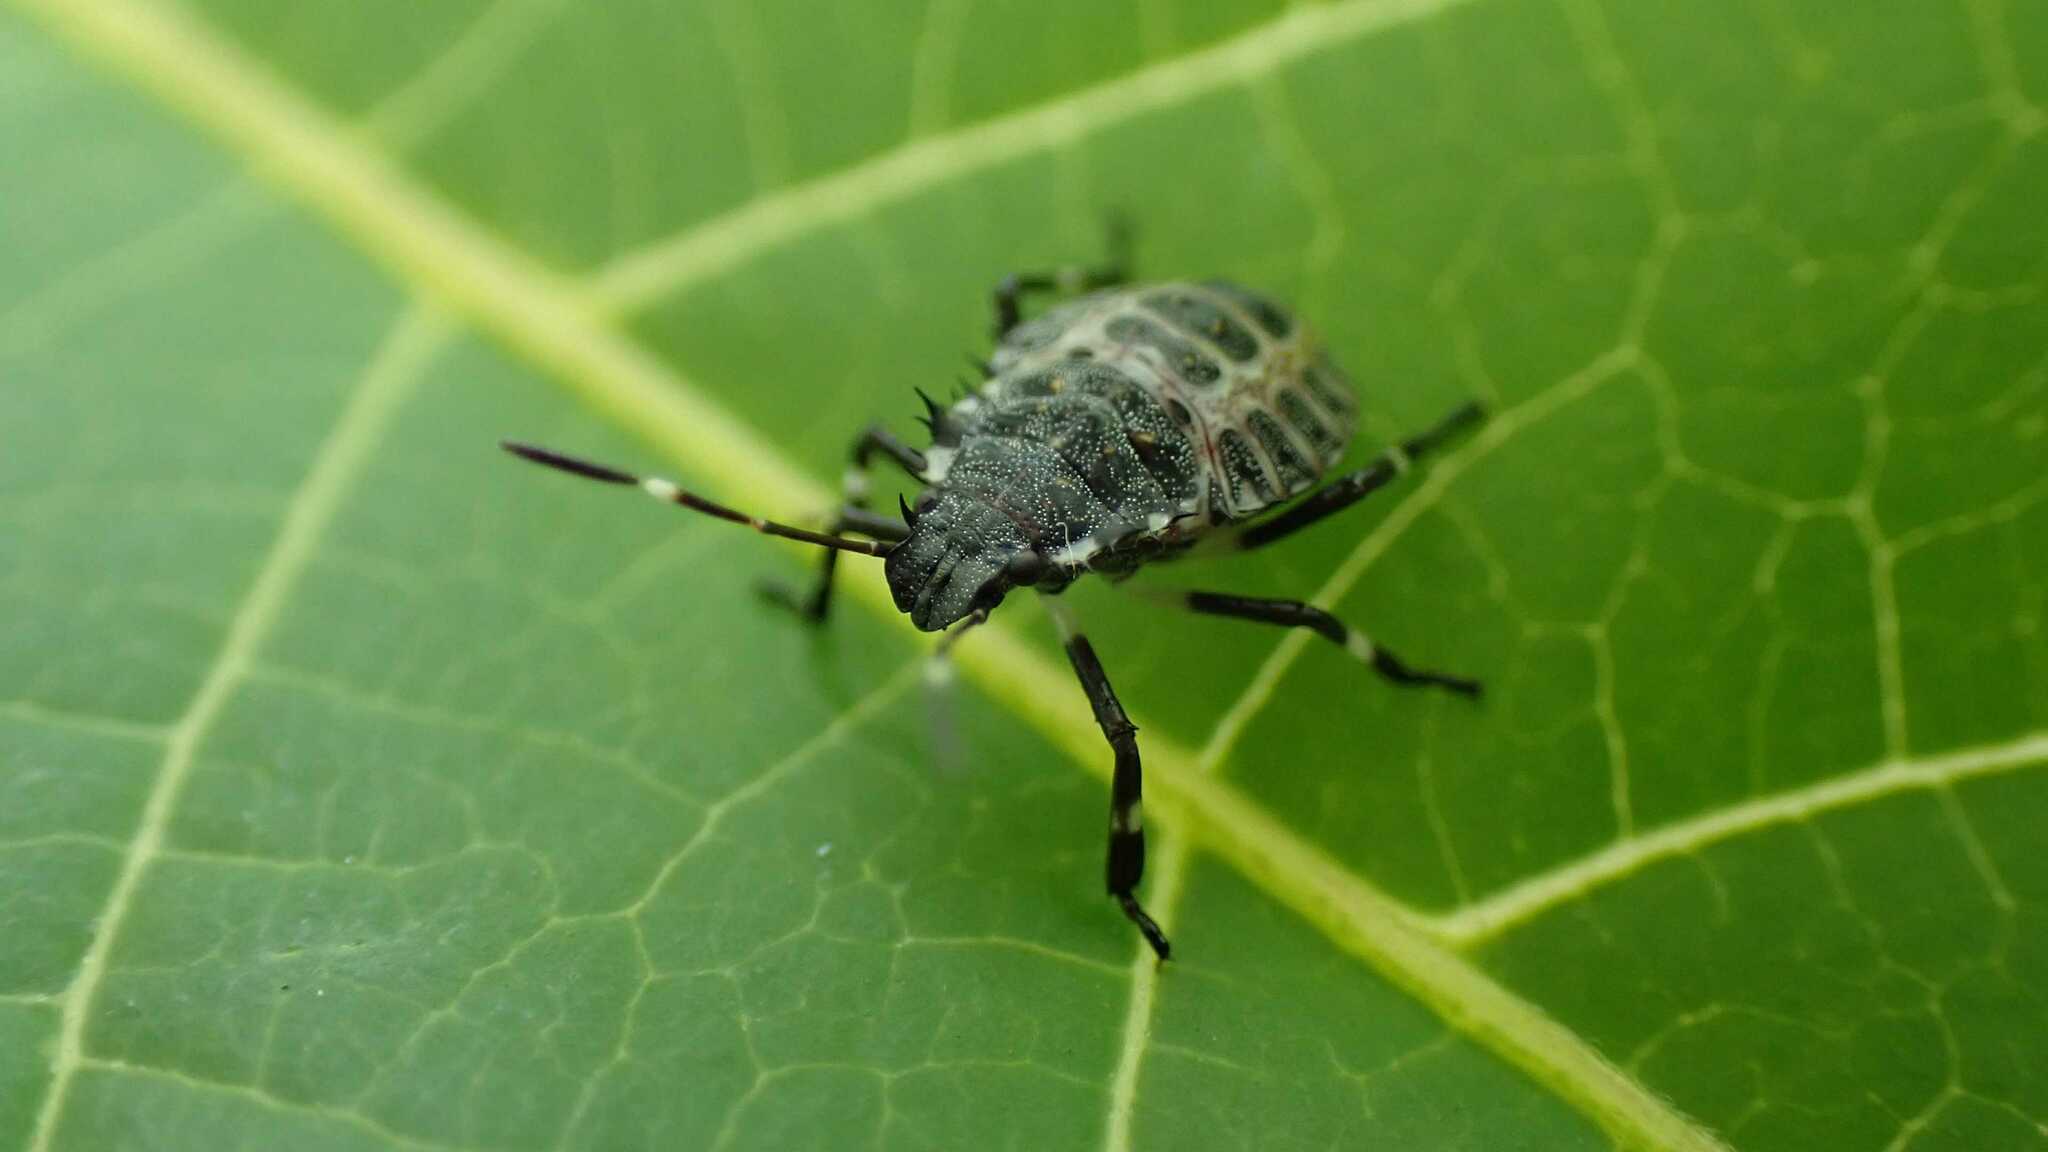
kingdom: Animalia
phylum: Arthropoda
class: Insecta
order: Hemiptera
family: Pentatomidae
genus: Halyomorpha
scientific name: Halyomorpha halys
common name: Brown marmorated stink bug
